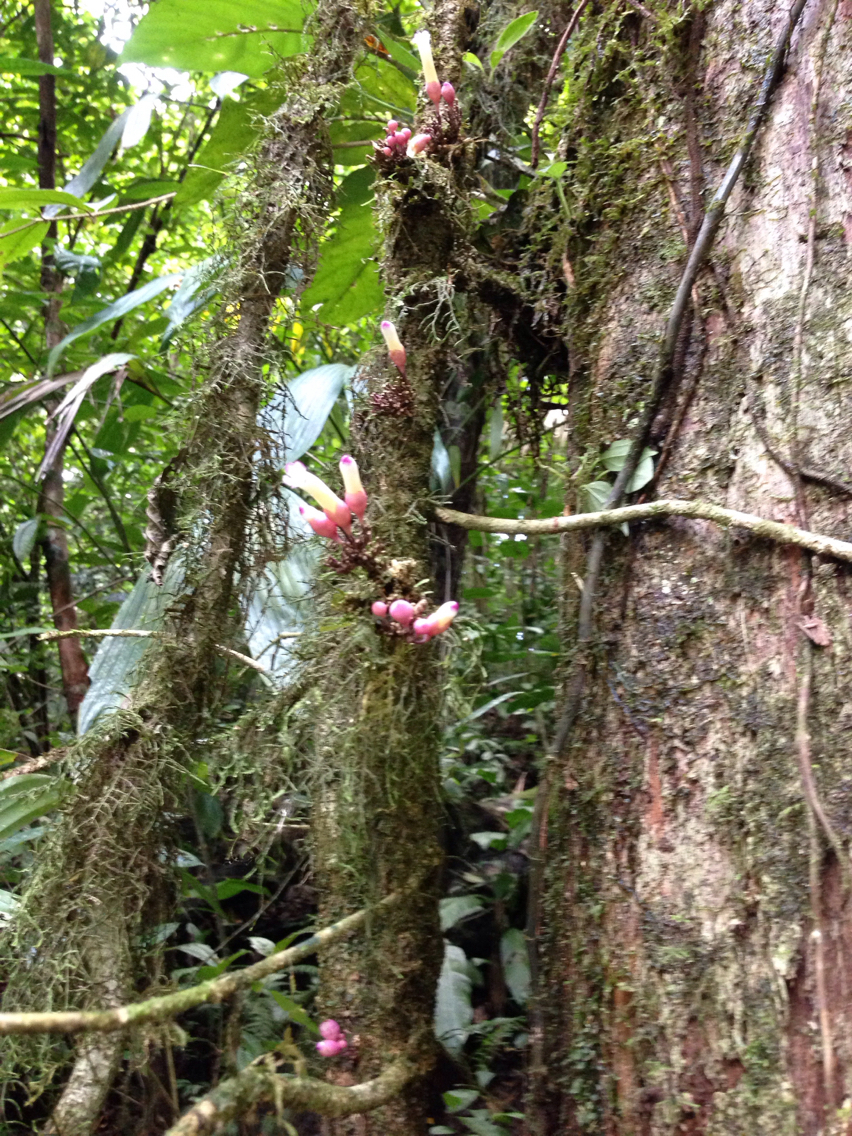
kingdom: Plantae
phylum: Tracheophyta
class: Magnoliopsida
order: Lamiales
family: Schlegeliaceae
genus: Schlegelia
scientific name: Schlegelia fastigiata
